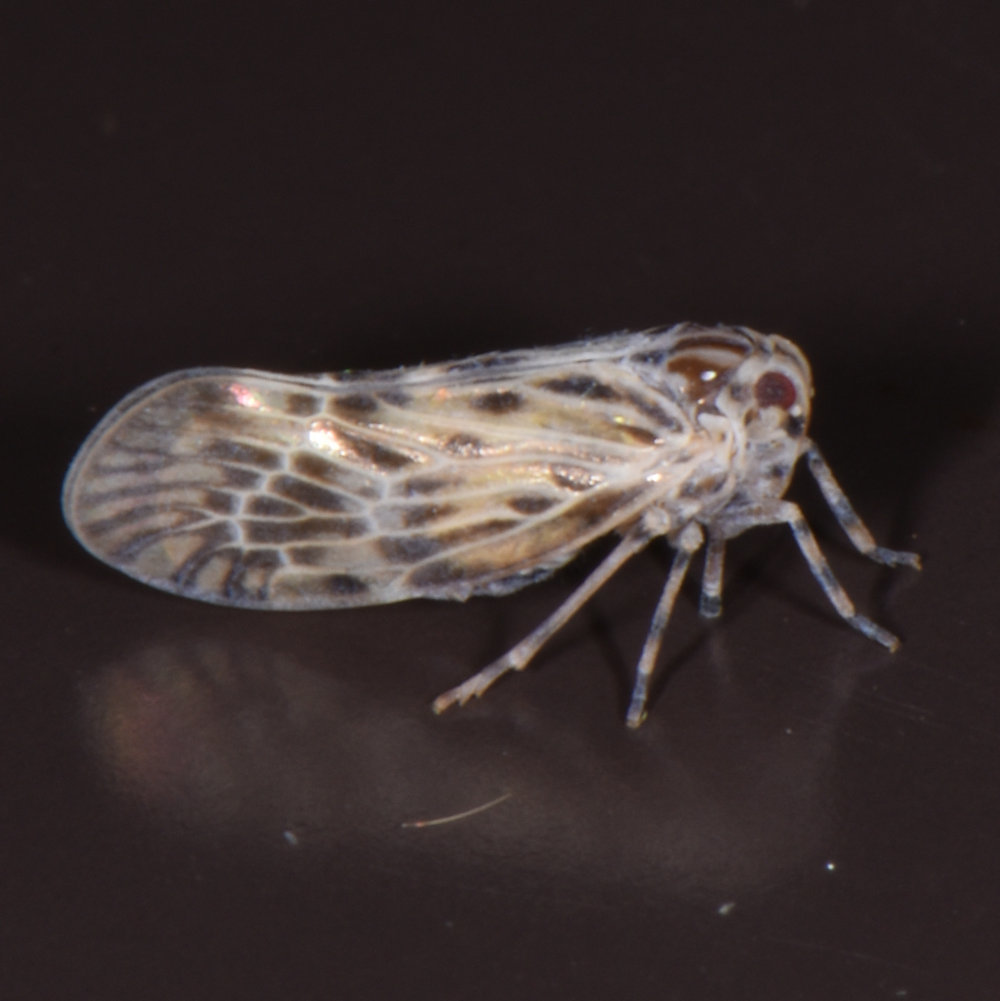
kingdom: Animalia
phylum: Arthropoda
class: Insecta
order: Hemiptera
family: Derbidae
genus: Cedusa
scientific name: Cedusa maculata
